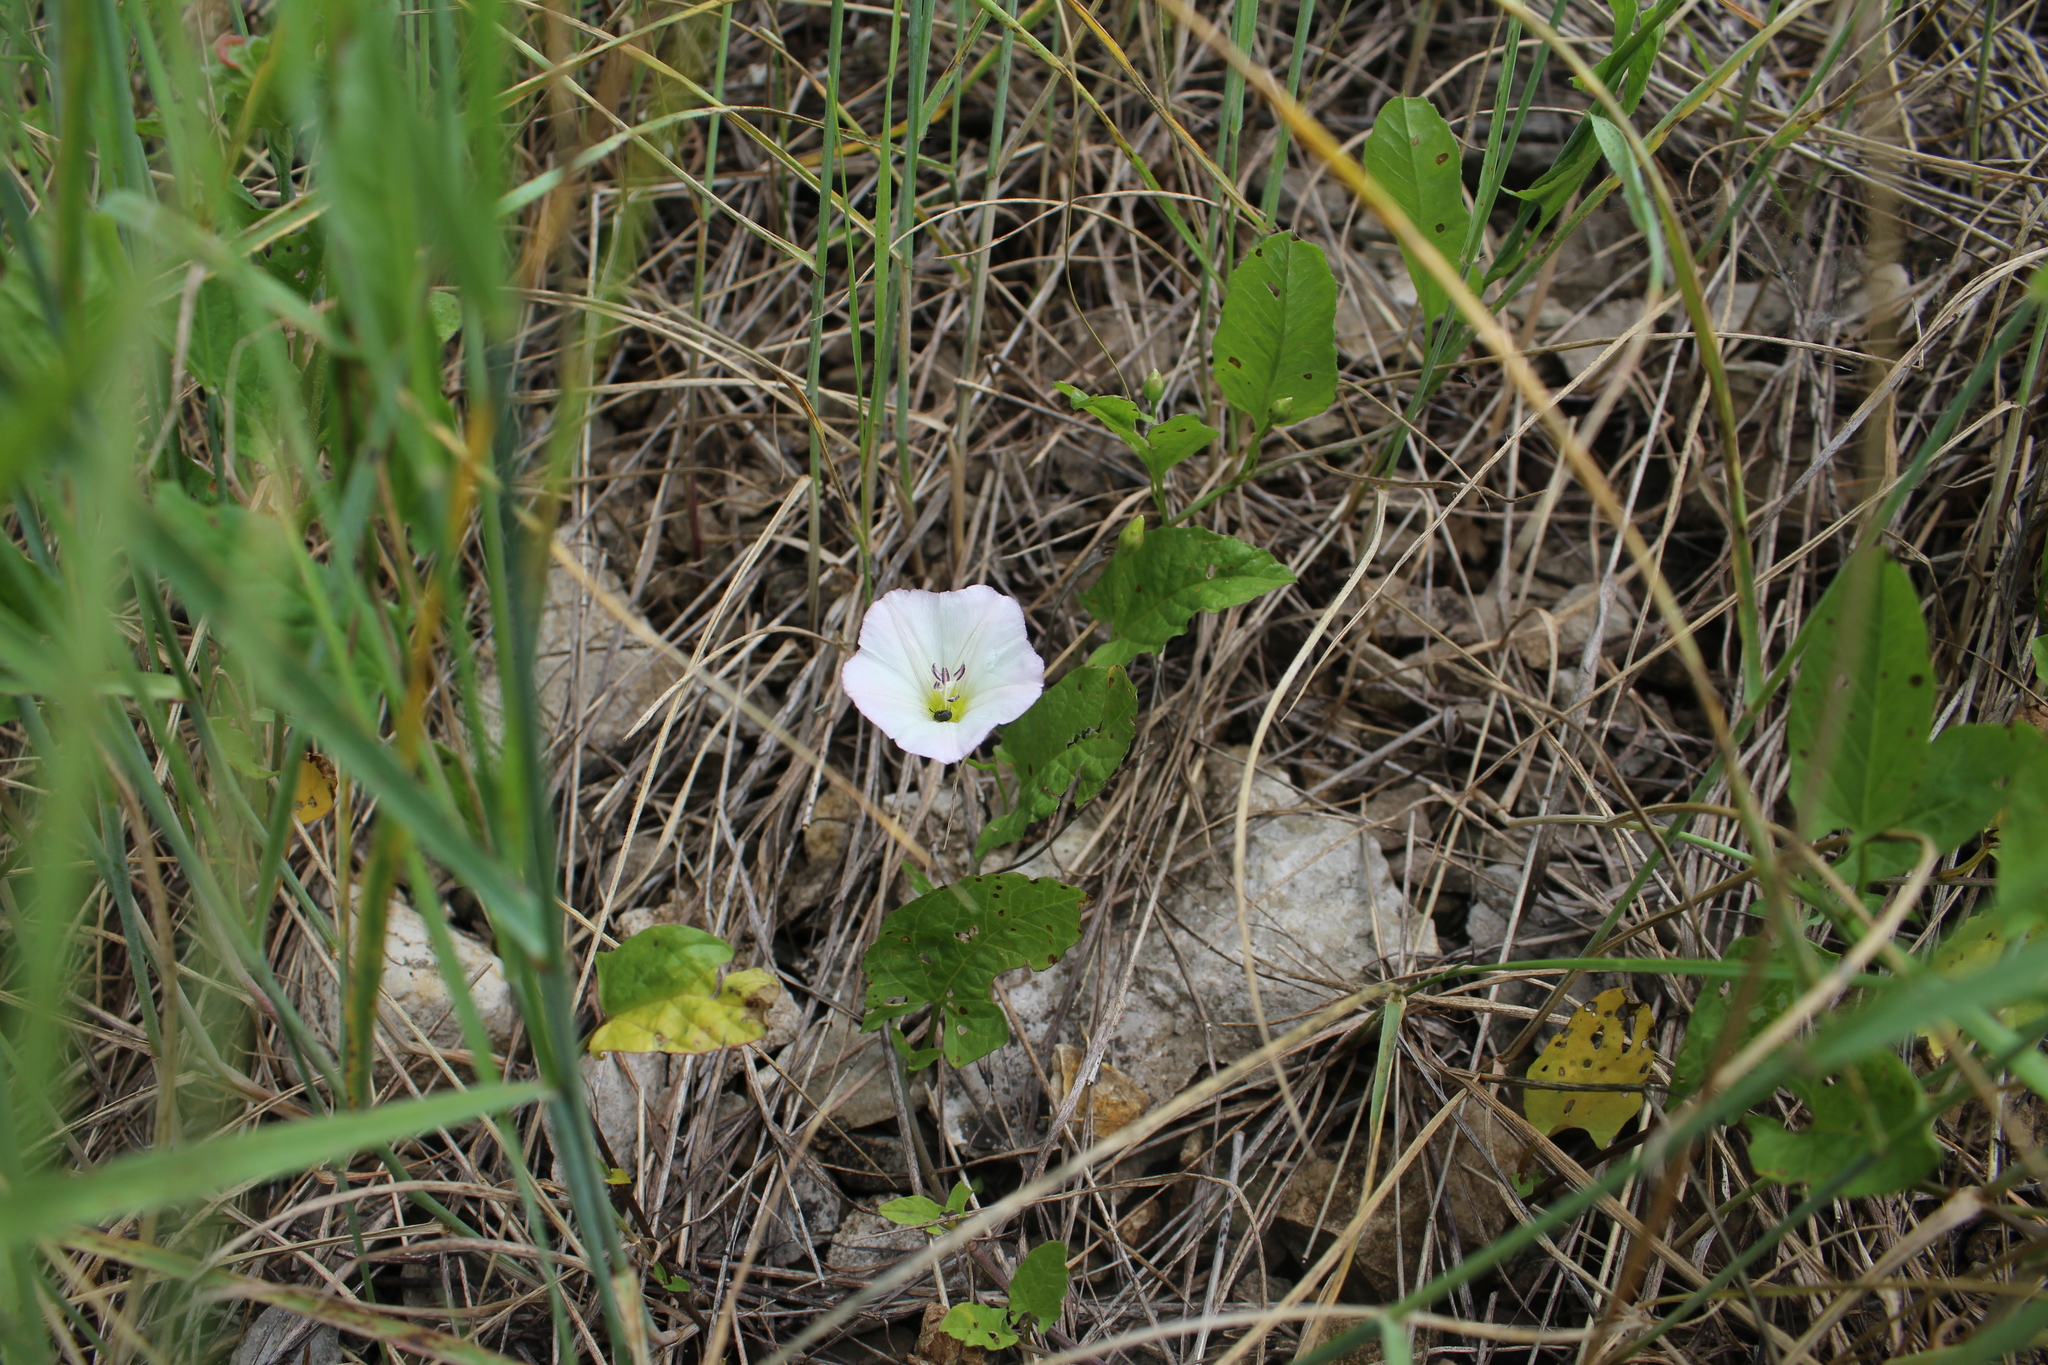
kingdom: Plantae
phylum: Tracheophyta
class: Magnoliopsida
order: Solanales
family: Convolvulaceae
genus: Convolvulus
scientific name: Convolvulus arvensis
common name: Field bindweed
